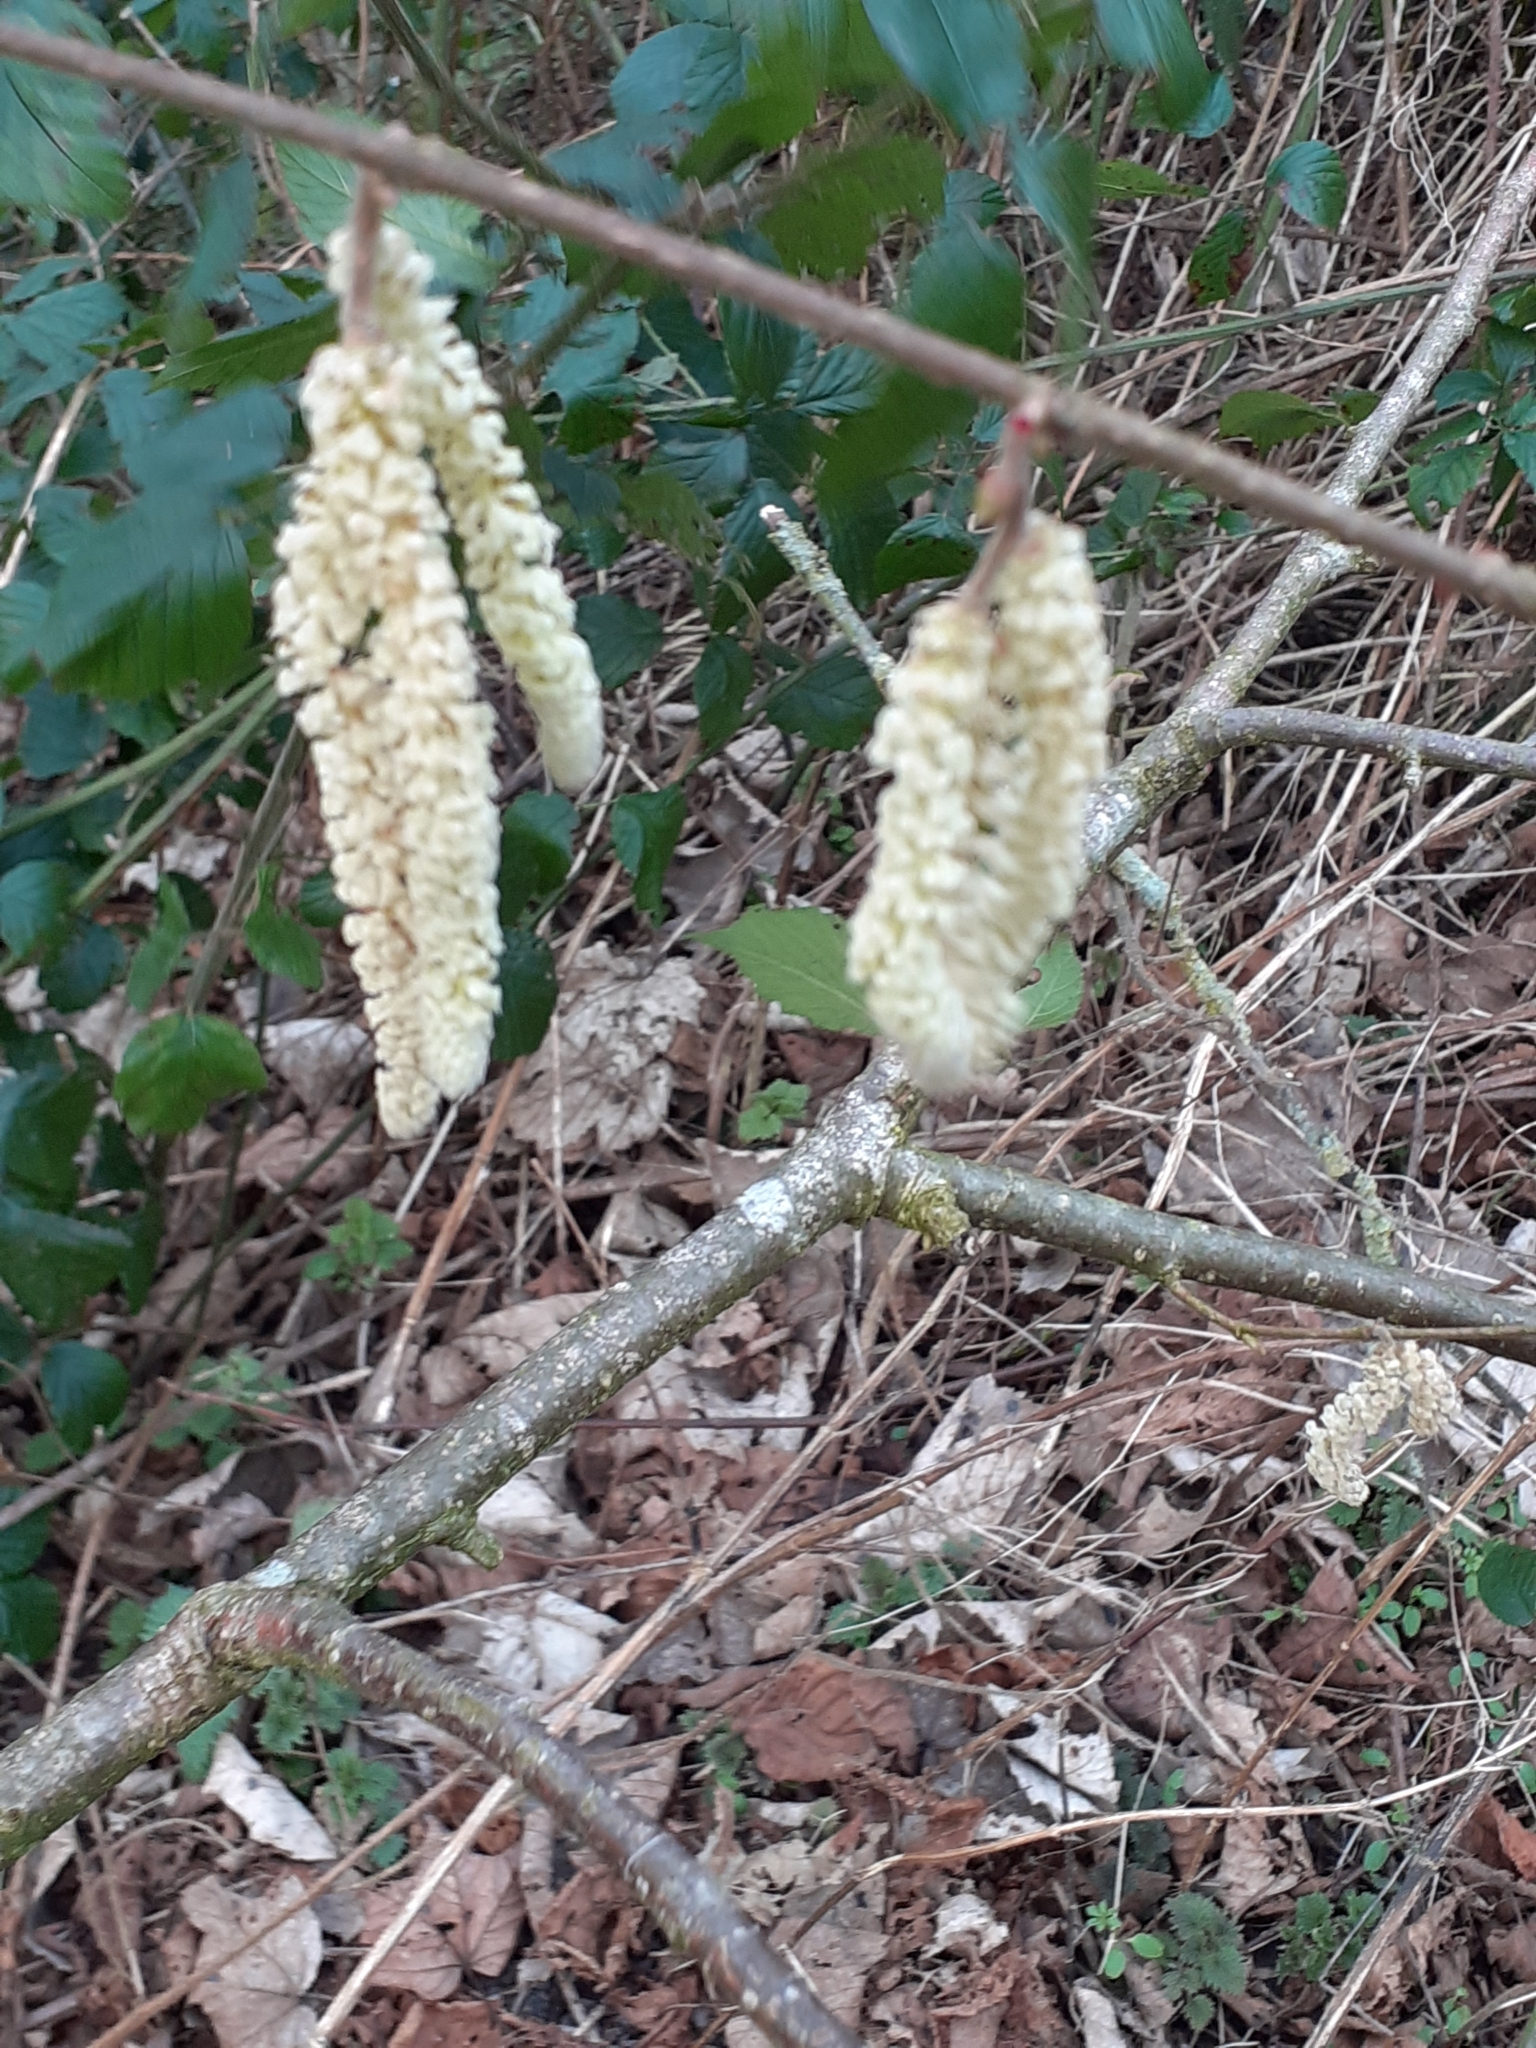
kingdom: Plantae
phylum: Tracheophyta
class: Magnoliopsida
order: Fagales
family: Betulaceae
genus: Corylus
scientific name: Corylus avellana
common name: European hazel
